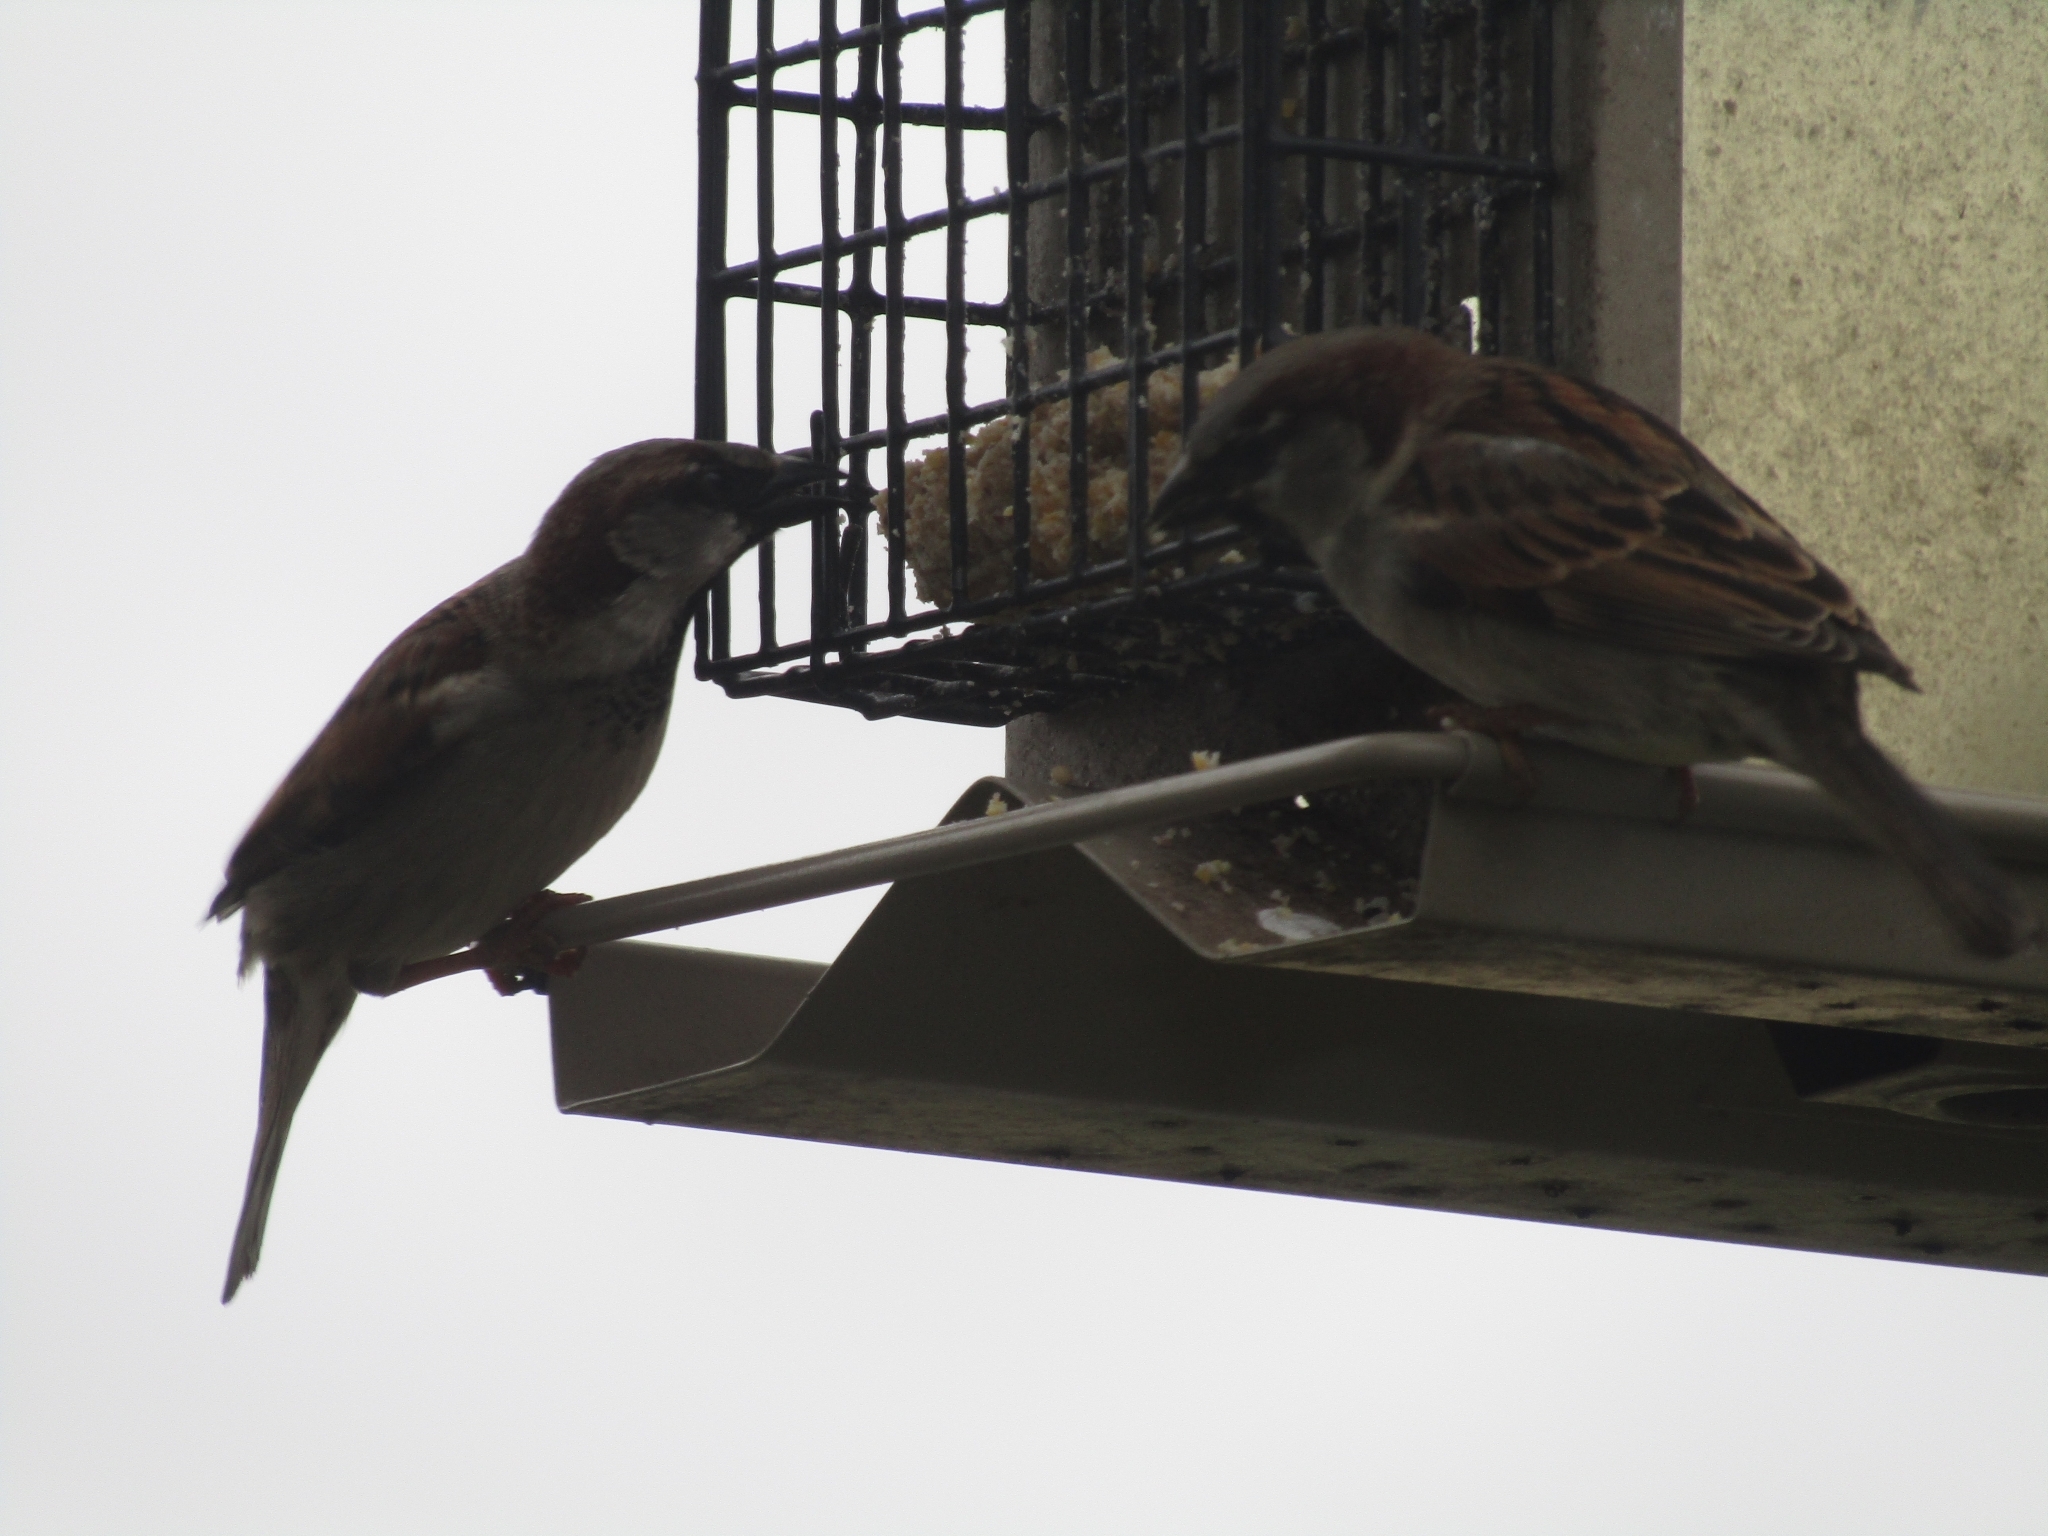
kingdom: Animalia
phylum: Chordata
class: Aves
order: Passeriformes
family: Passeridae
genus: Passer
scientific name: Passer domesticus
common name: House sparrow
